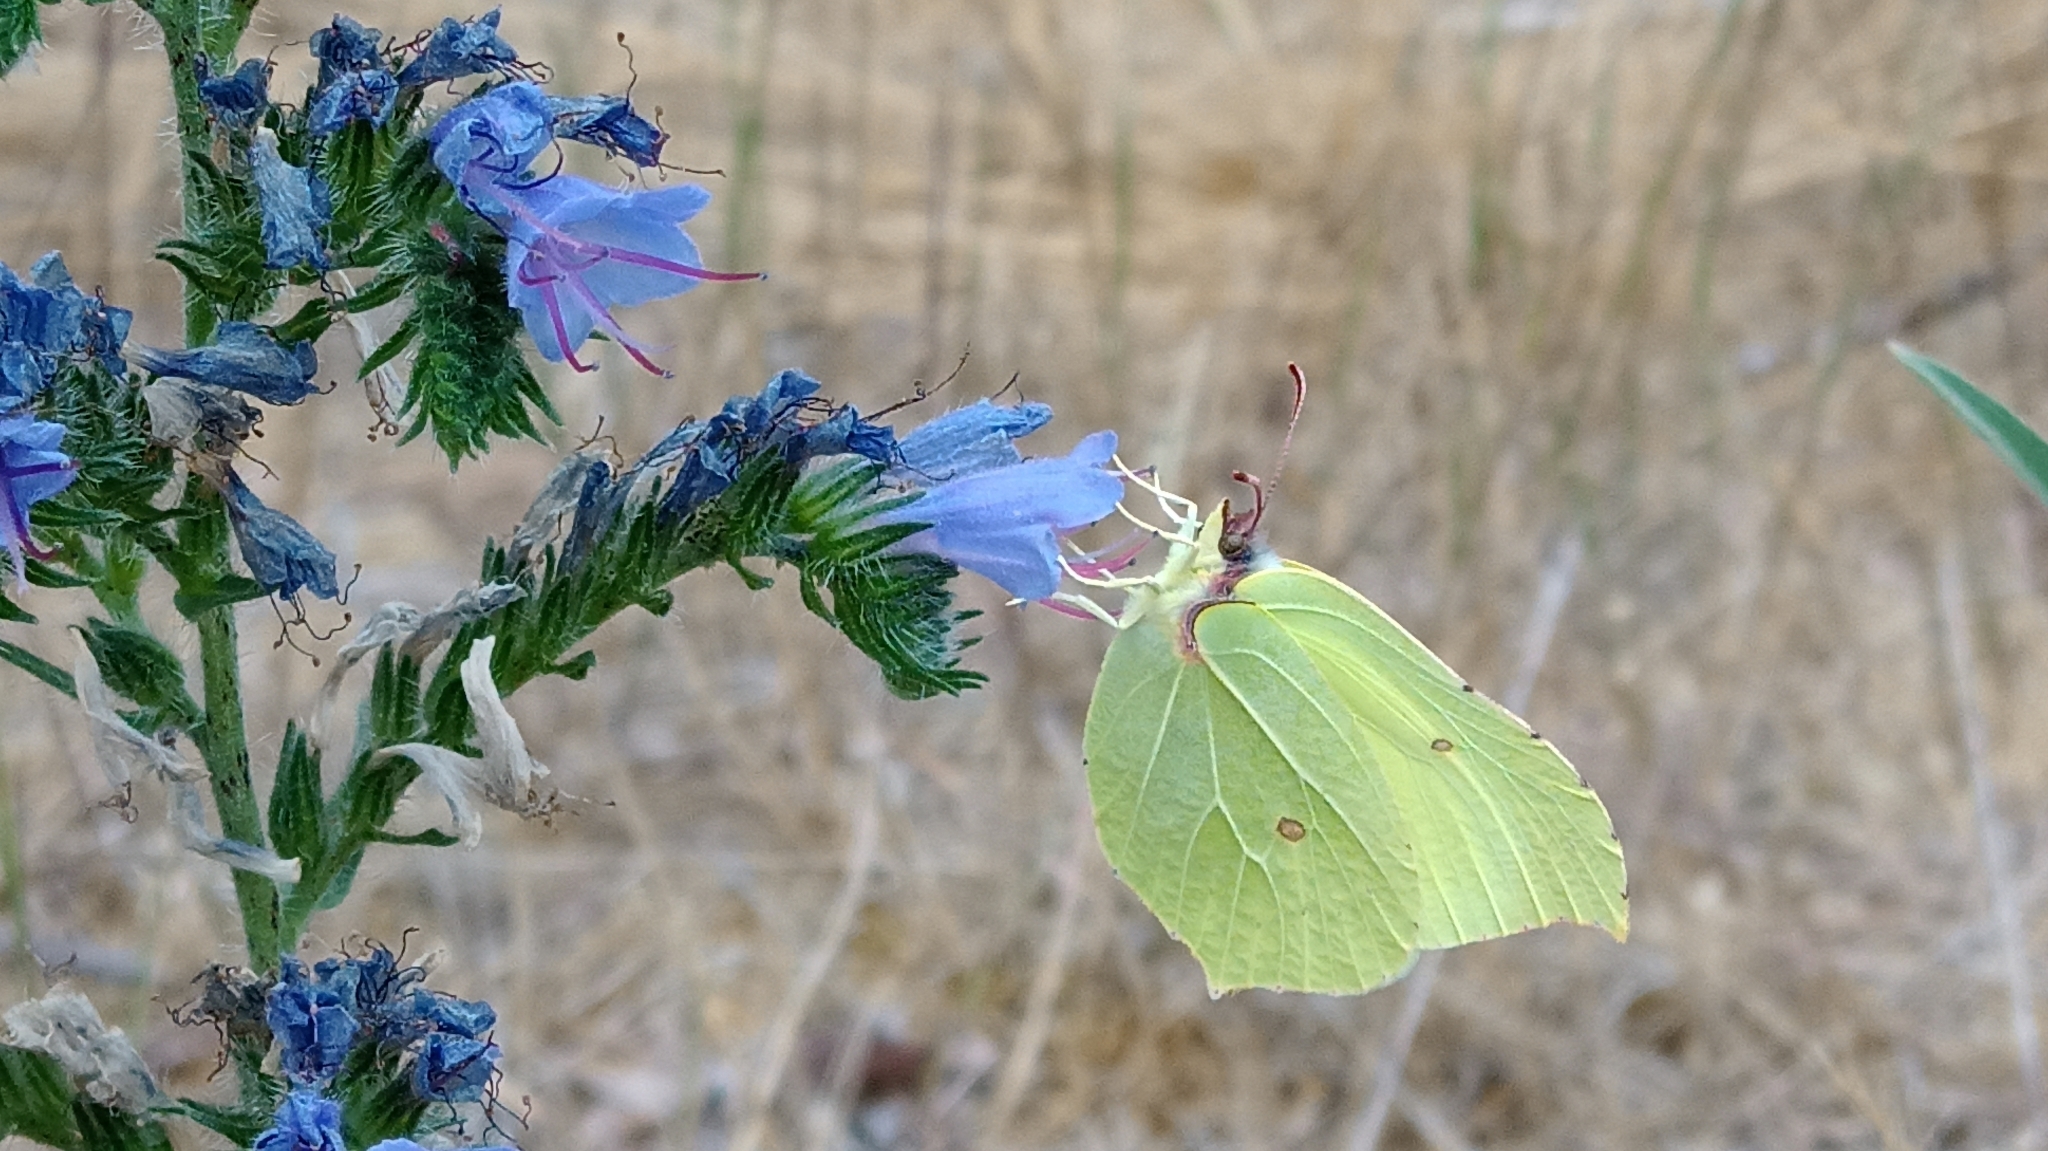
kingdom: Animalia
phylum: Arthropoda
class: Insecta
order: Lepidoptera
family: Pieridae
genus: Gonepteryx
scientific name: Gonepteryx rhamni
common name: Brimstone
